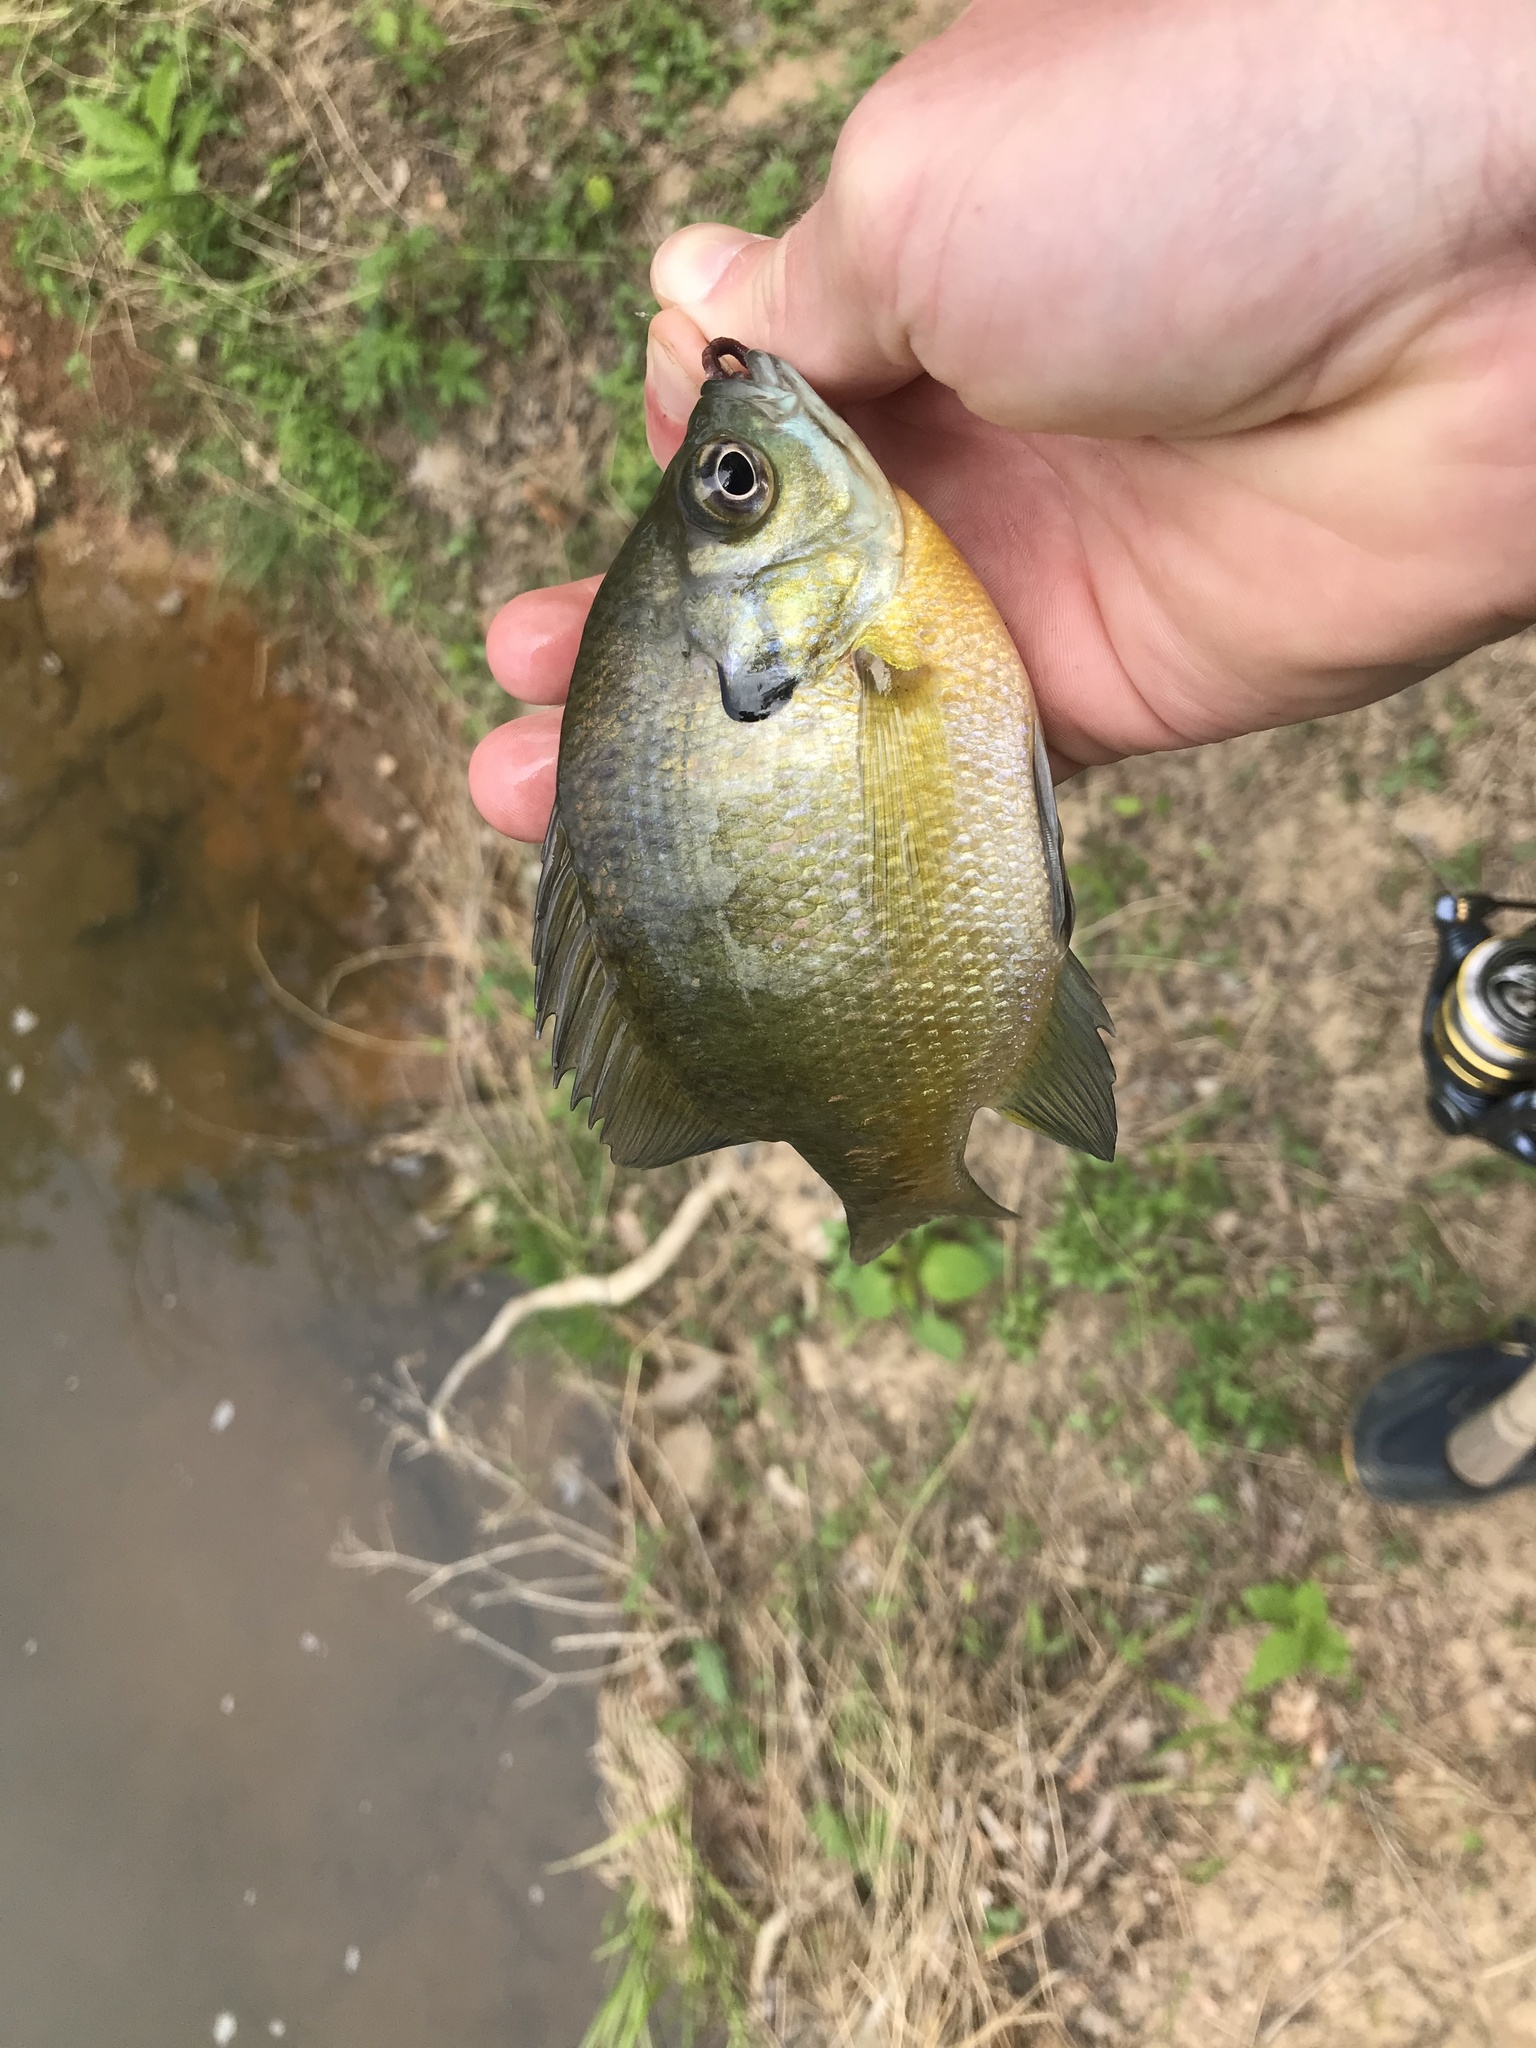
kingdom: Animalia
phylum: Chordata
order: Perciformes
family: Centrarchidae
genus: Lepomis
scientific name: Lepomis macrochirus
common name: Bluegill
